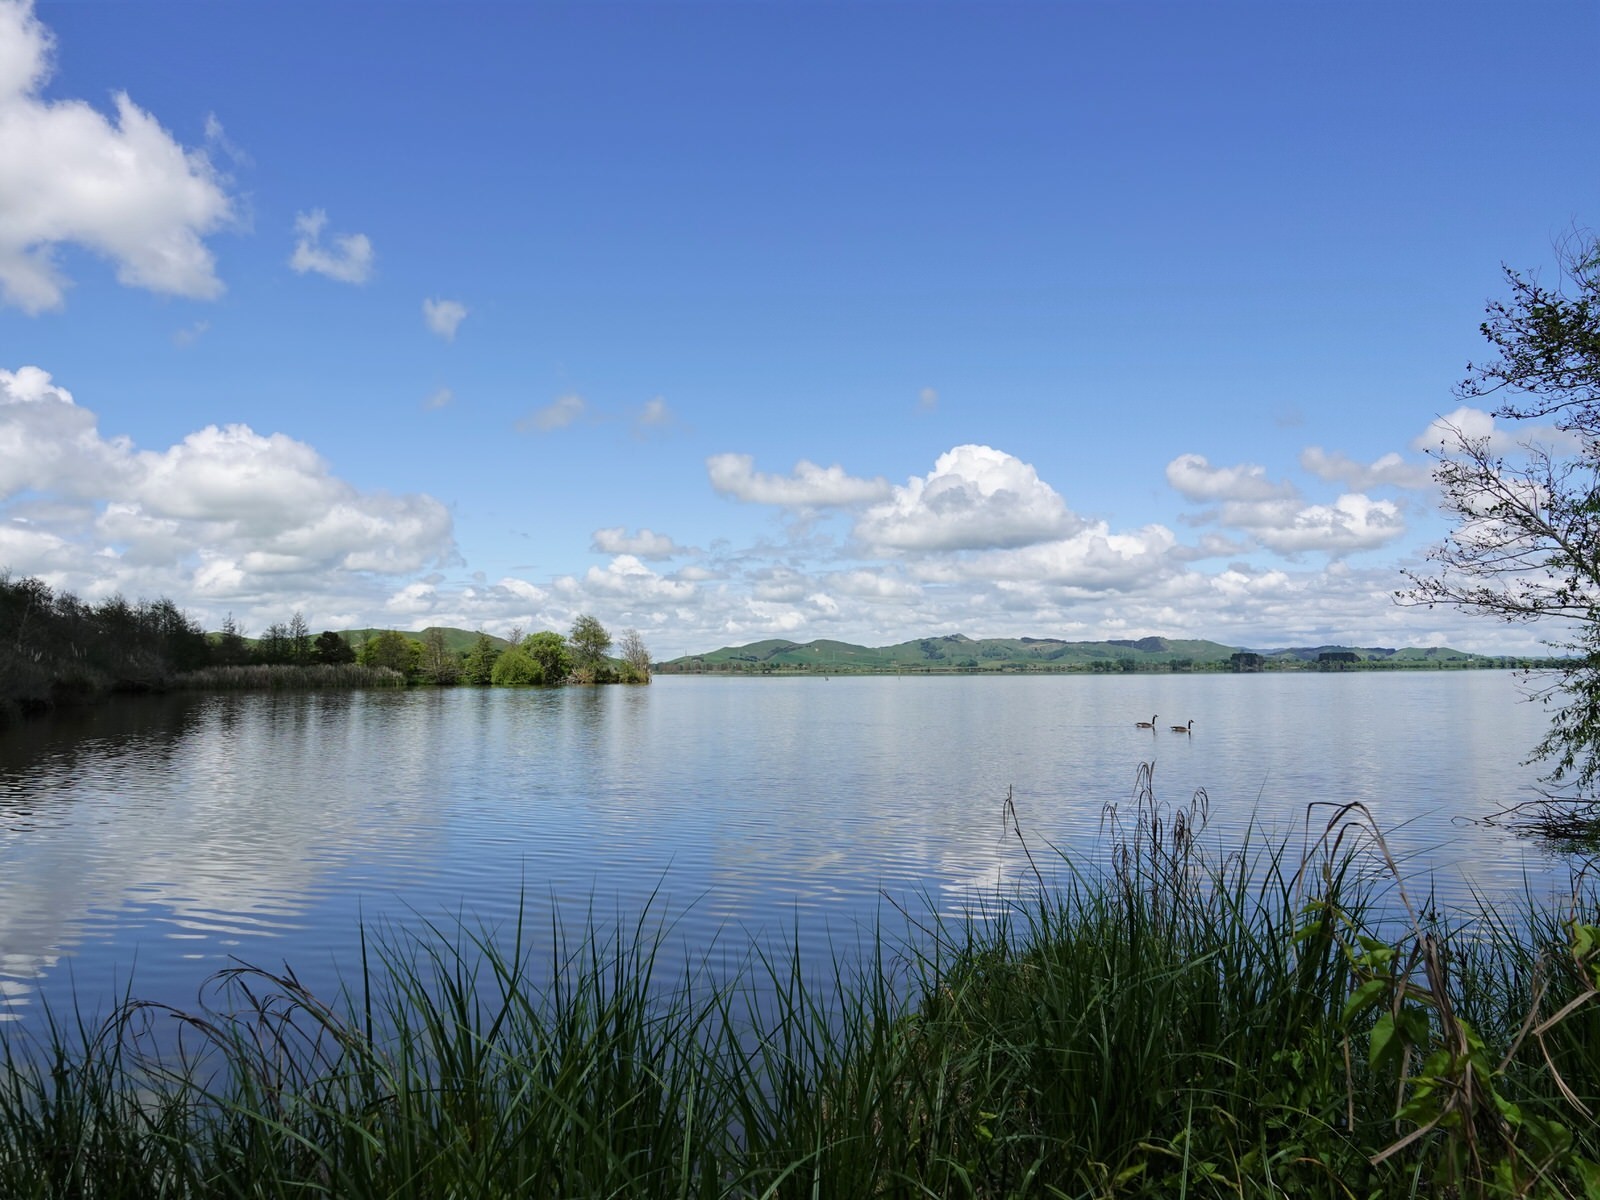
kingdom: Animalia
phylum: Chordata
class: Aves
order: Anseriformes
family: Anatidae
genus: Branta
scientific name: Branta canadensis
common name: Canada goose
